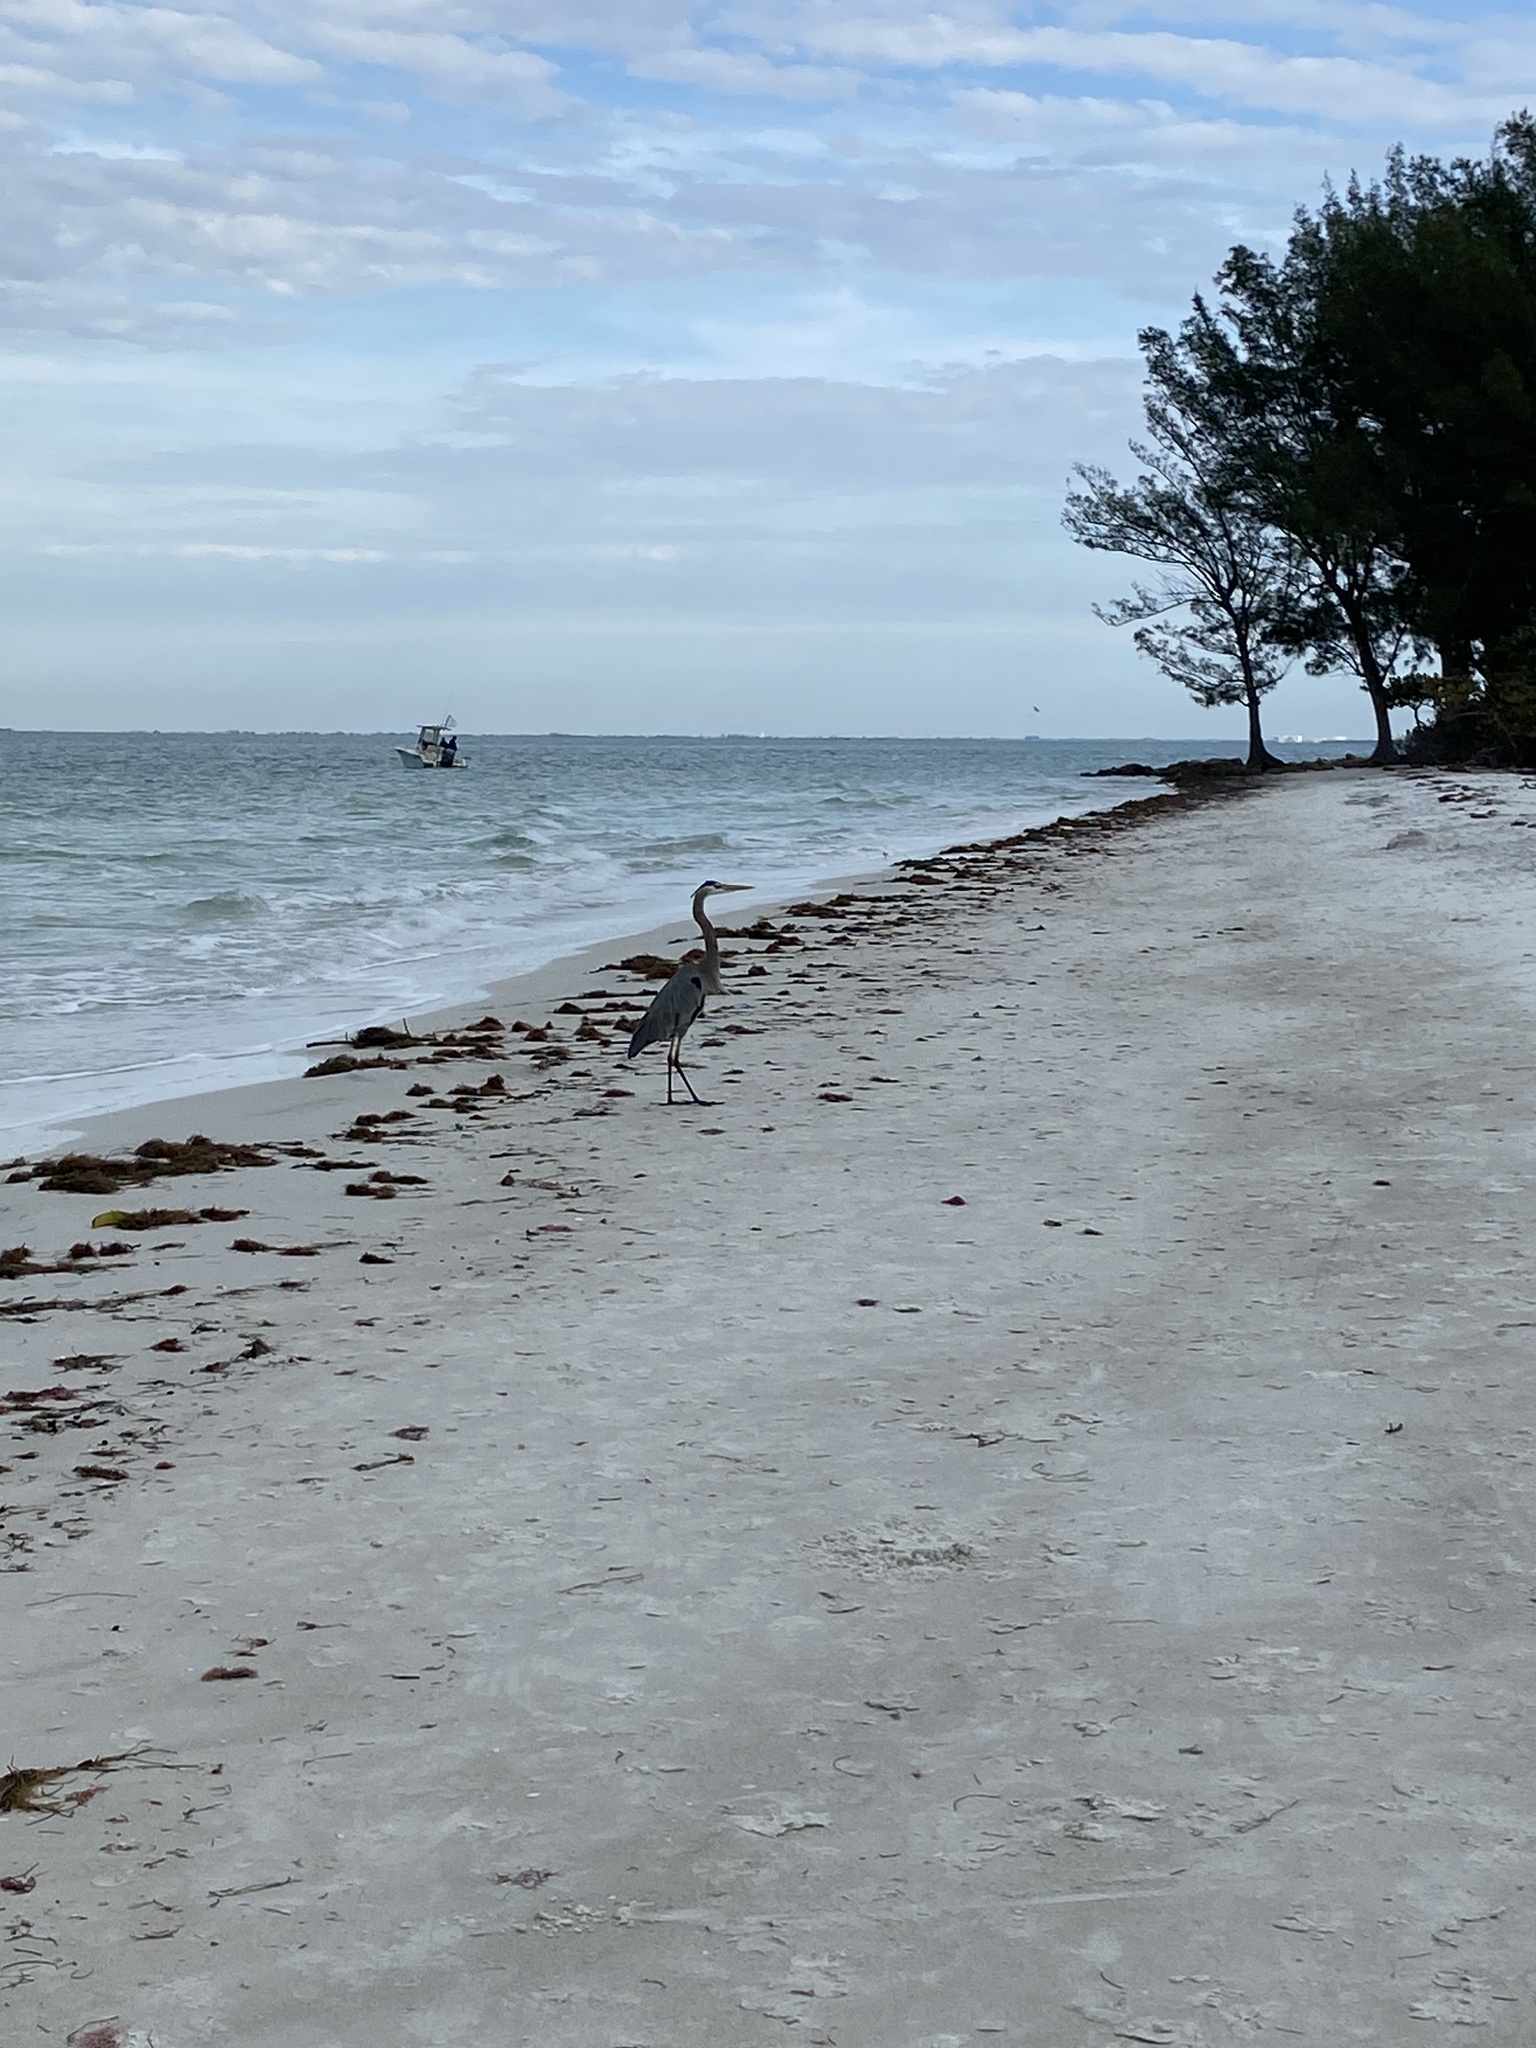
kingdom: Animalia
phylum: Chordata
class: Aves
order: Pelecaniformes
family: Ardeidae
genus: Ardea
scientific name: Ardea herodias
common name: Great blue heron
